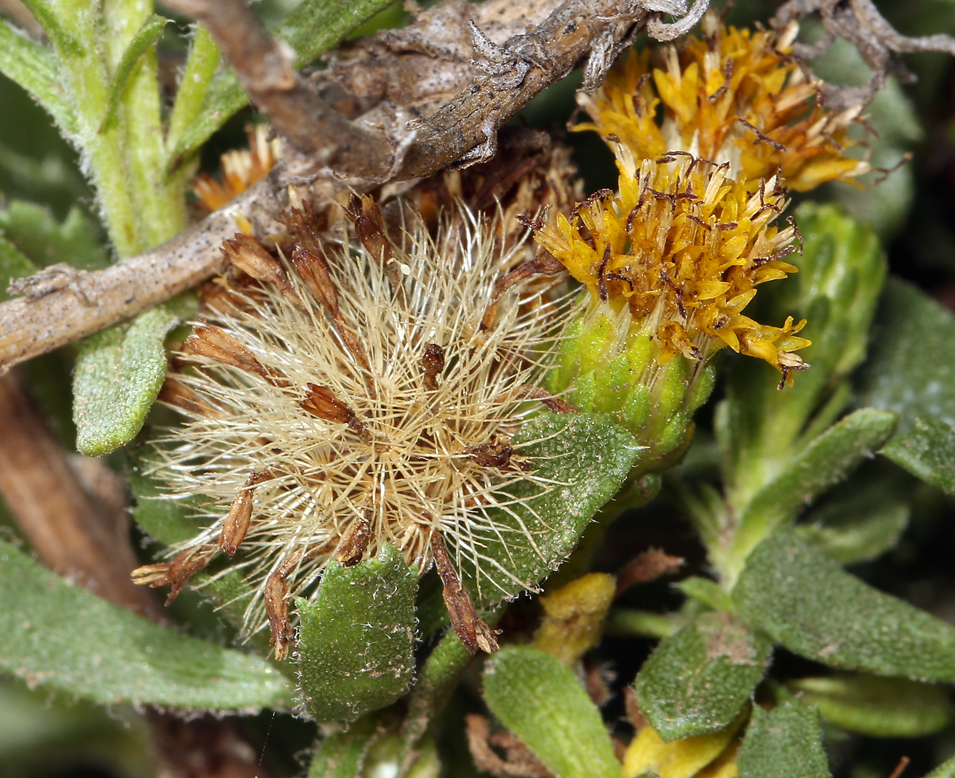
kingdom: Plantae
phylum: Tracheophyta
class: Magnoliopsida
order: Asterales
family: Asteraceae
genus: Isocoma
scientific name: Isocoma menziesii
